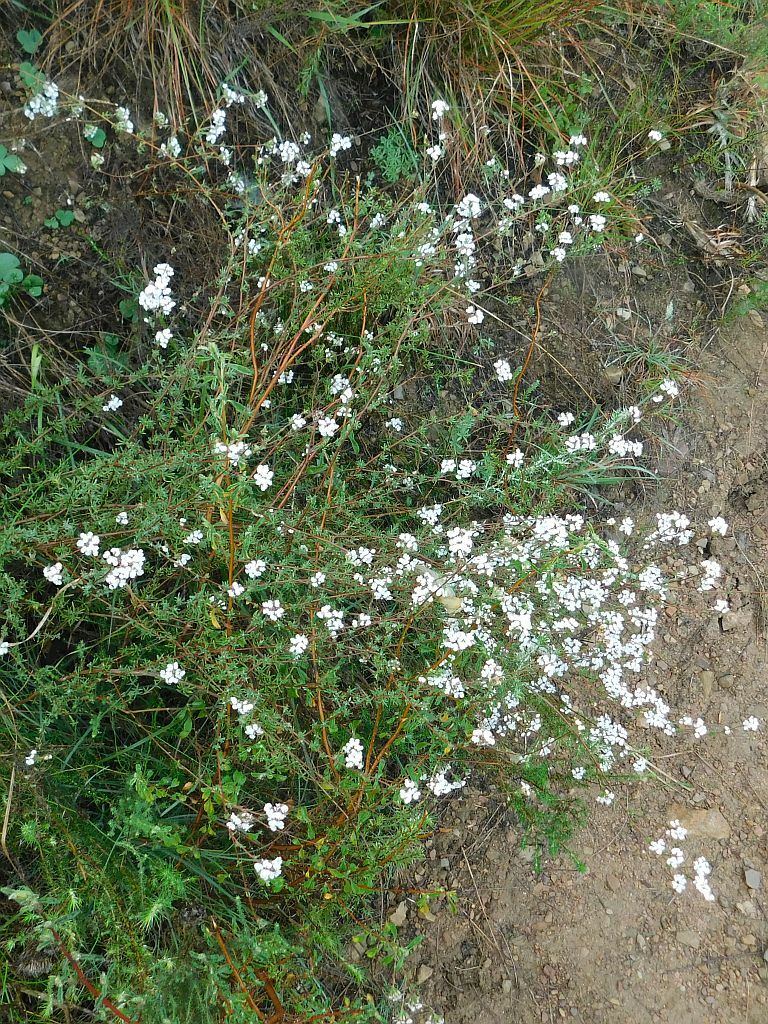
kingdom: Plantae
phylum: Tracheophyta
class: Magnoliopsida
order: Asterales
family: Asteraceae
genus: Eriocephalus
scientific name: Eriocephalus africanus
